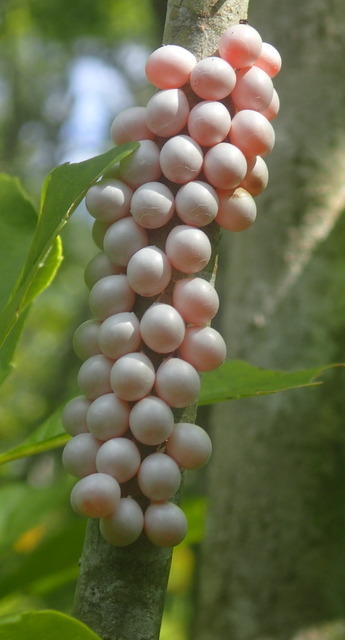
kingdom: Animalia
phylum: Mollusca
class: Gastropoda
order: Architaenioglossa
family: Ampullariidae
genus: Pomacea
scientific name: Pomacea paludosa
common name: Florida applesnail
